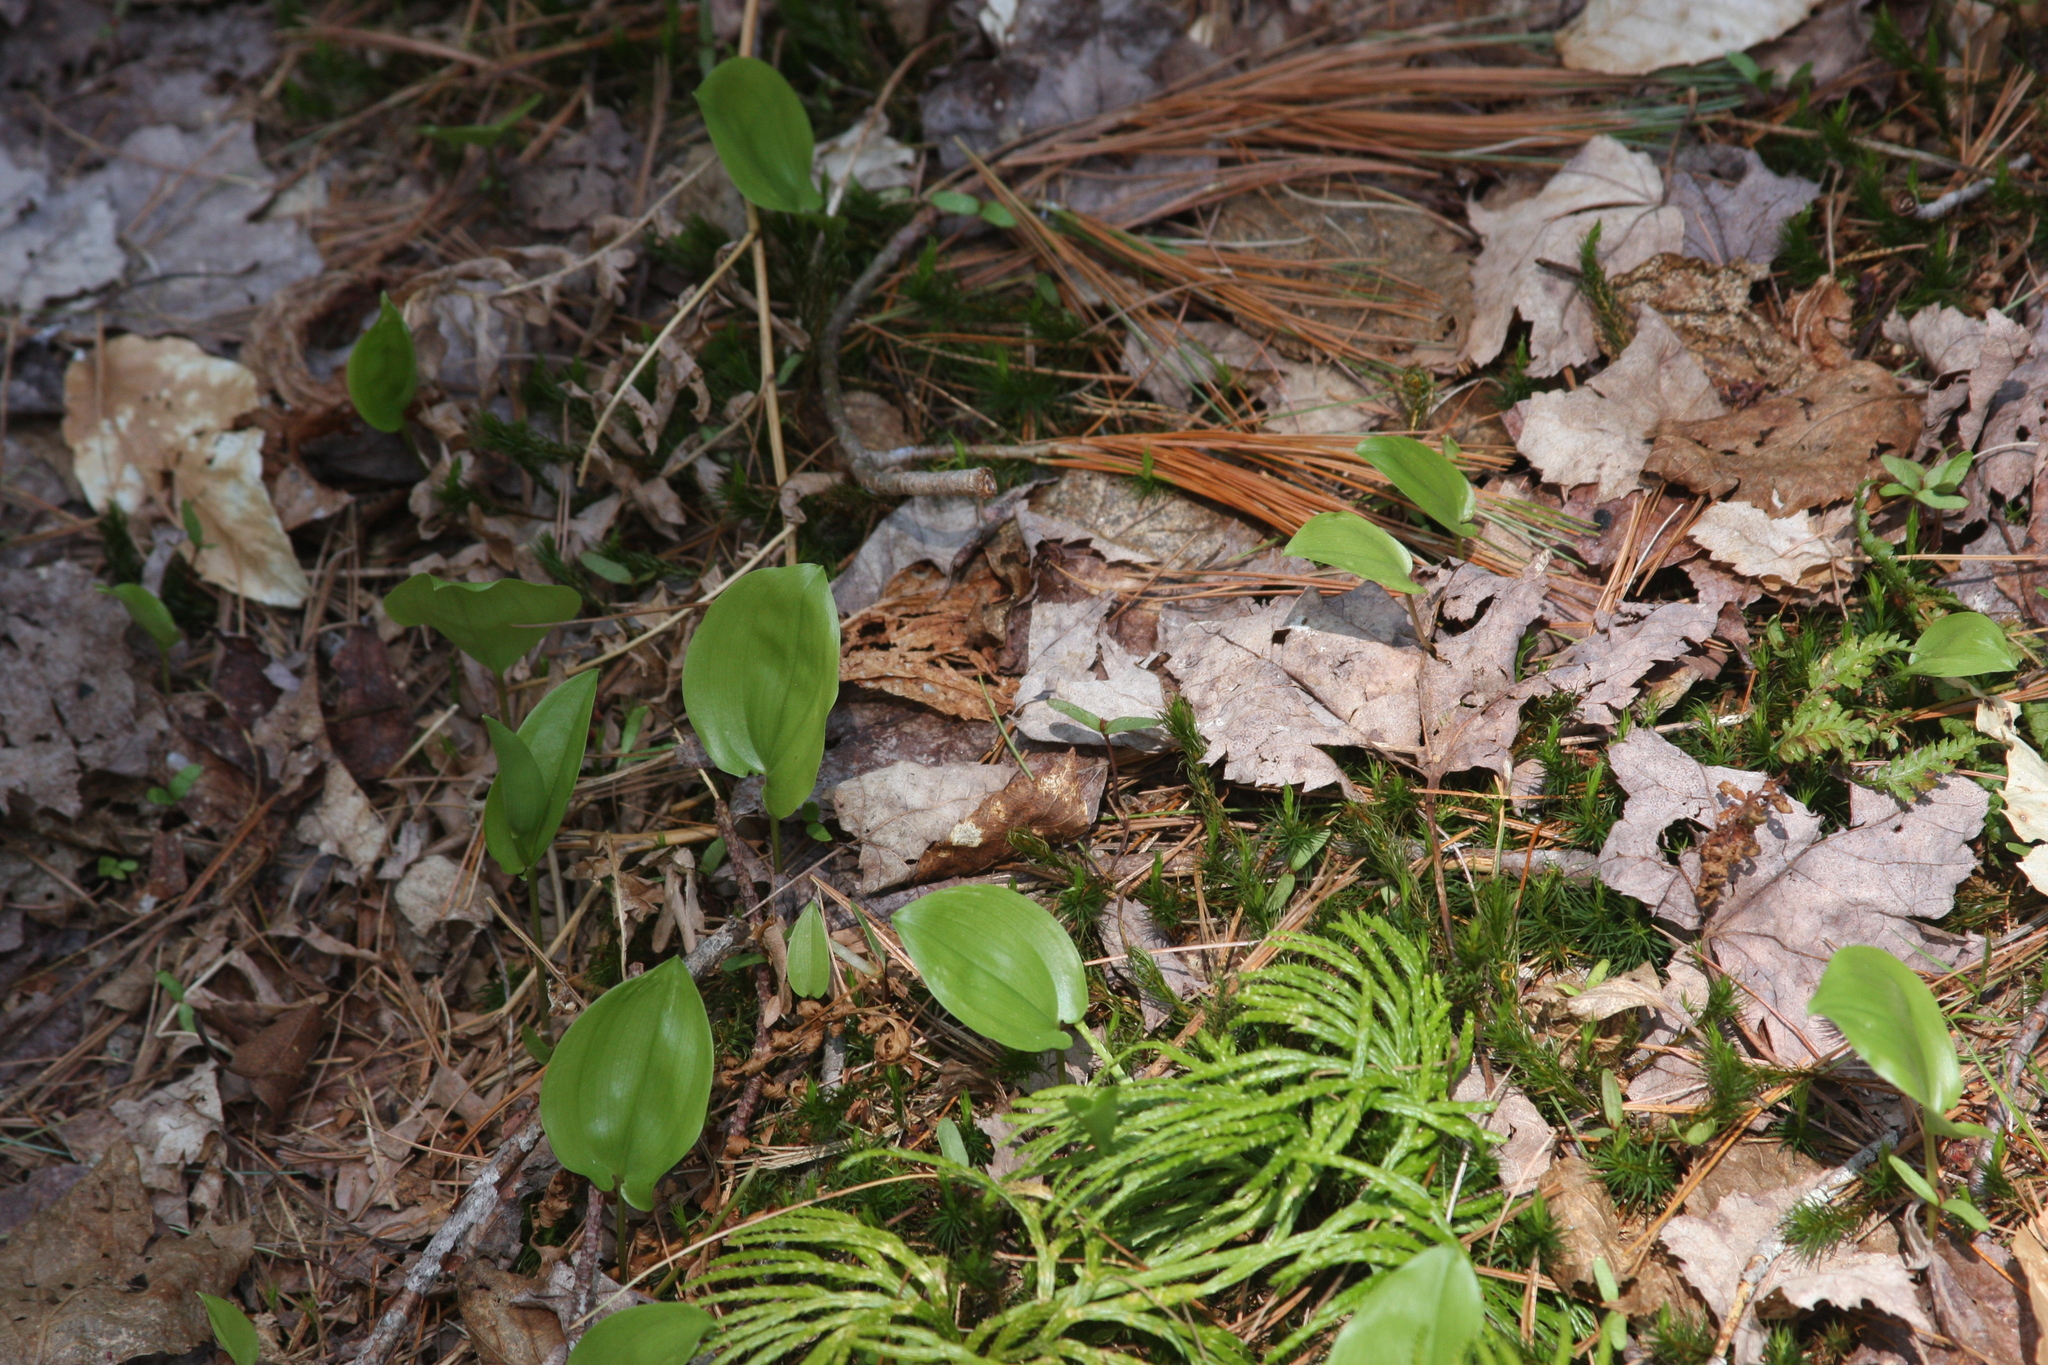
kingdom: Plantae
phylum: Tracheophyta
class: Liliopsida
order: Asparagales
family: Asparagaceae
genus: Maianthemum
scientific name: Maianthemum canadense
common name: False lily-of-the-valley
